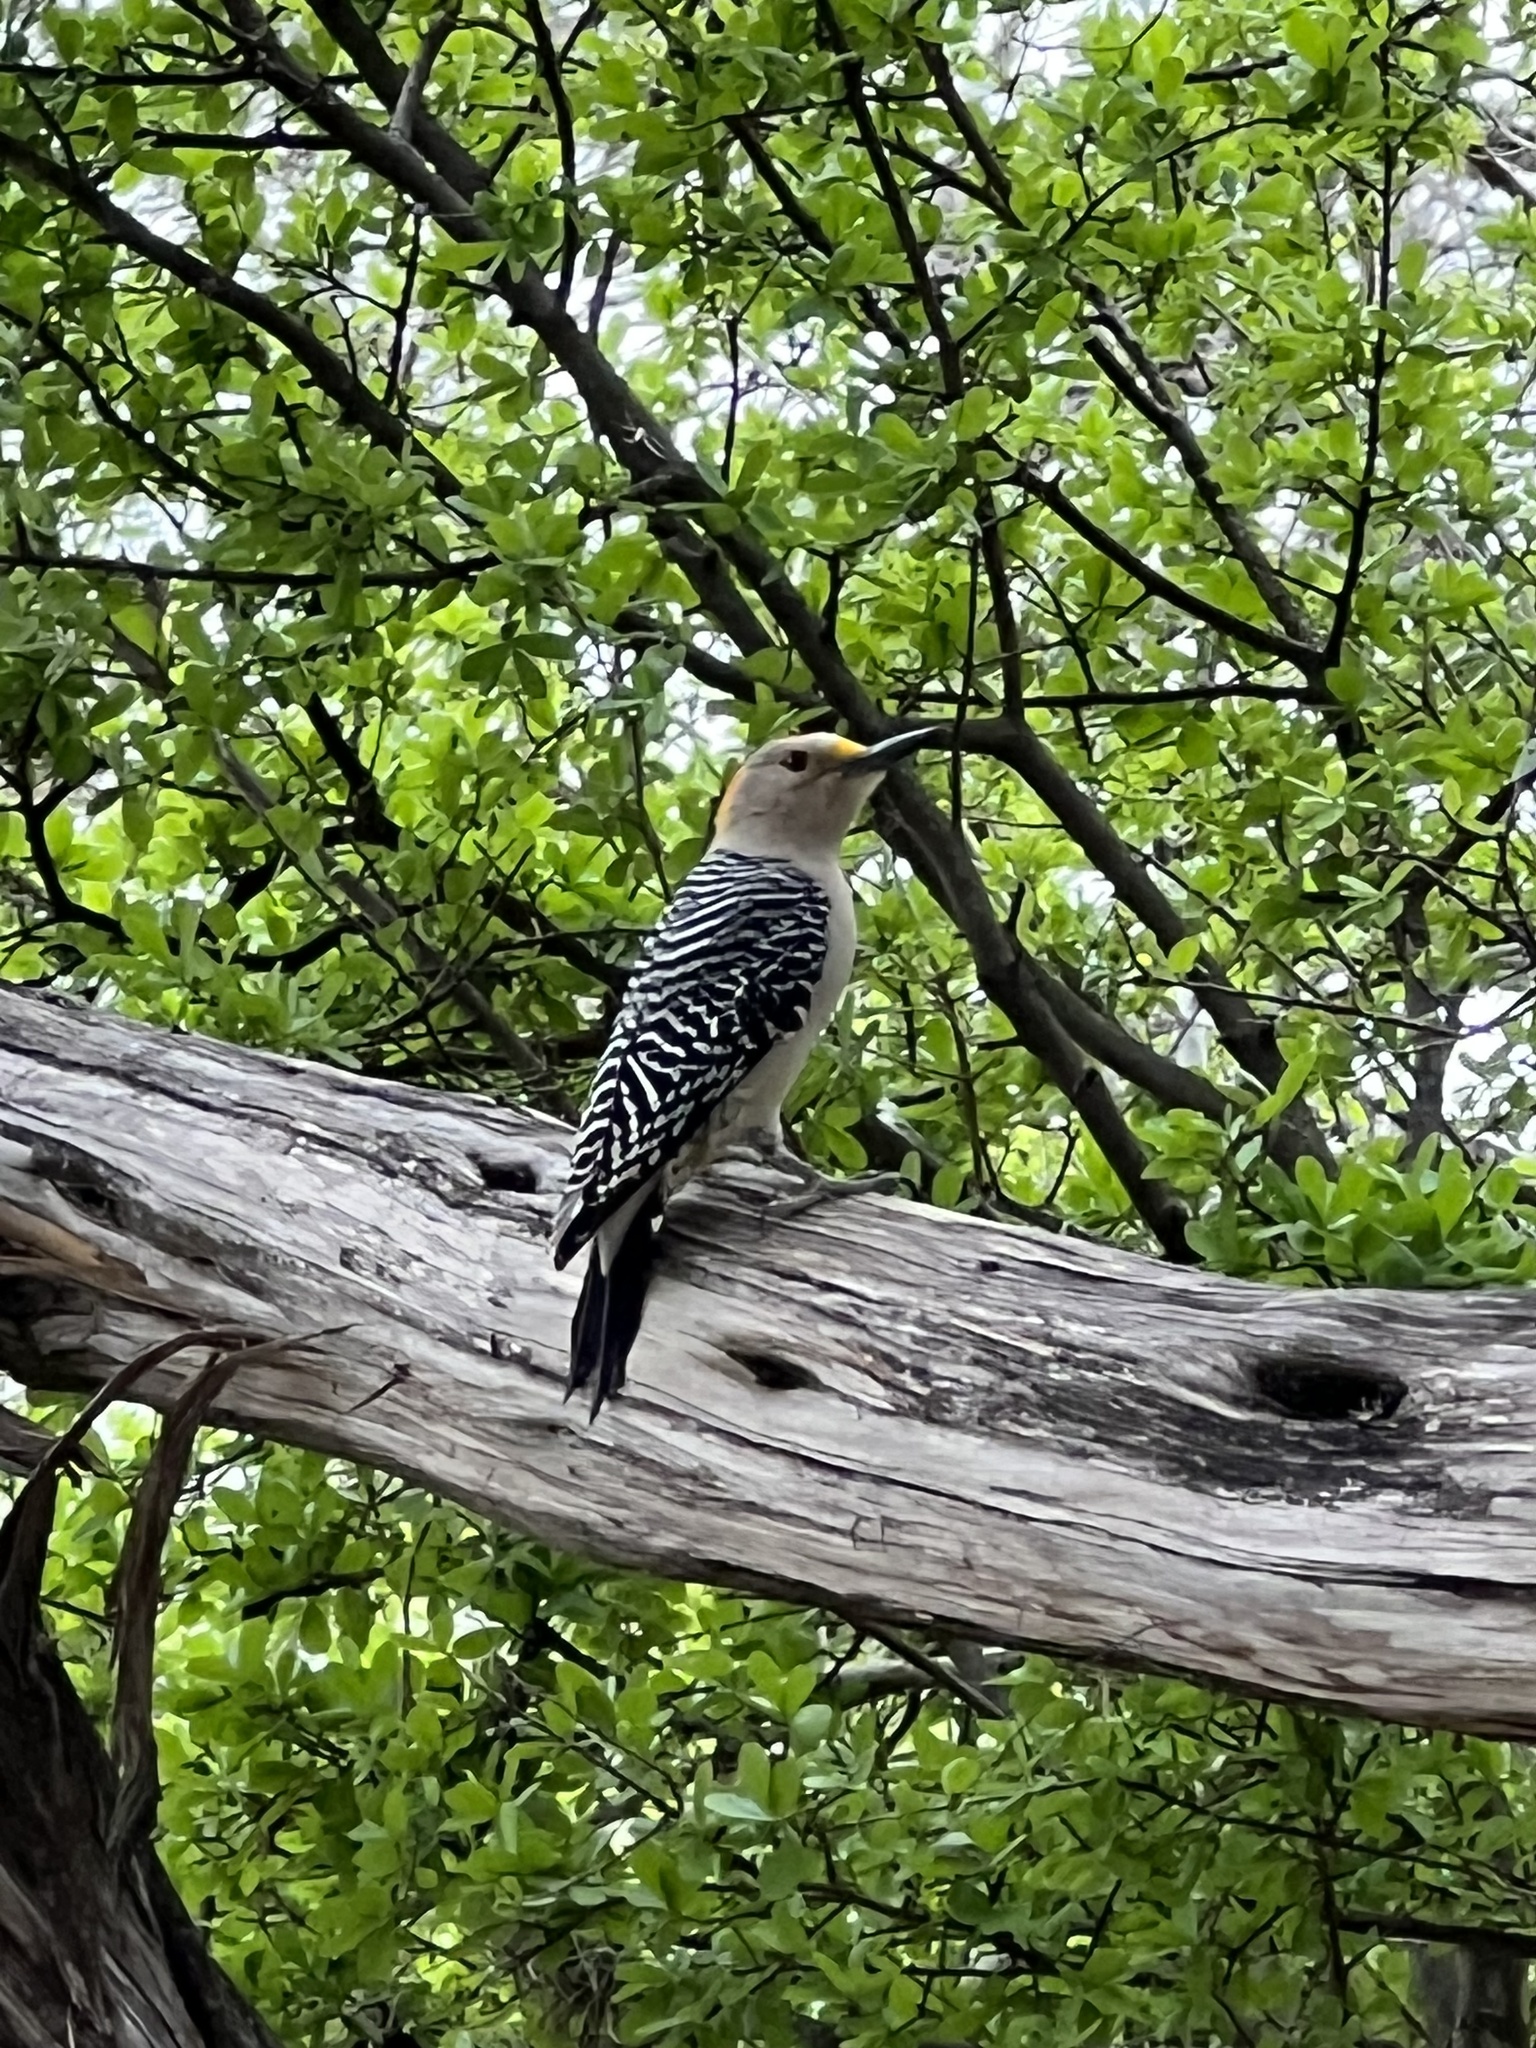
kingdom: Animalia
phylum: Chordata
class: Aves
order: Piciformes
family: Picidae
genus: Melanerpes
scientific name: Melanerpes aurifrons
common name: Golden-fronted woodpecker
